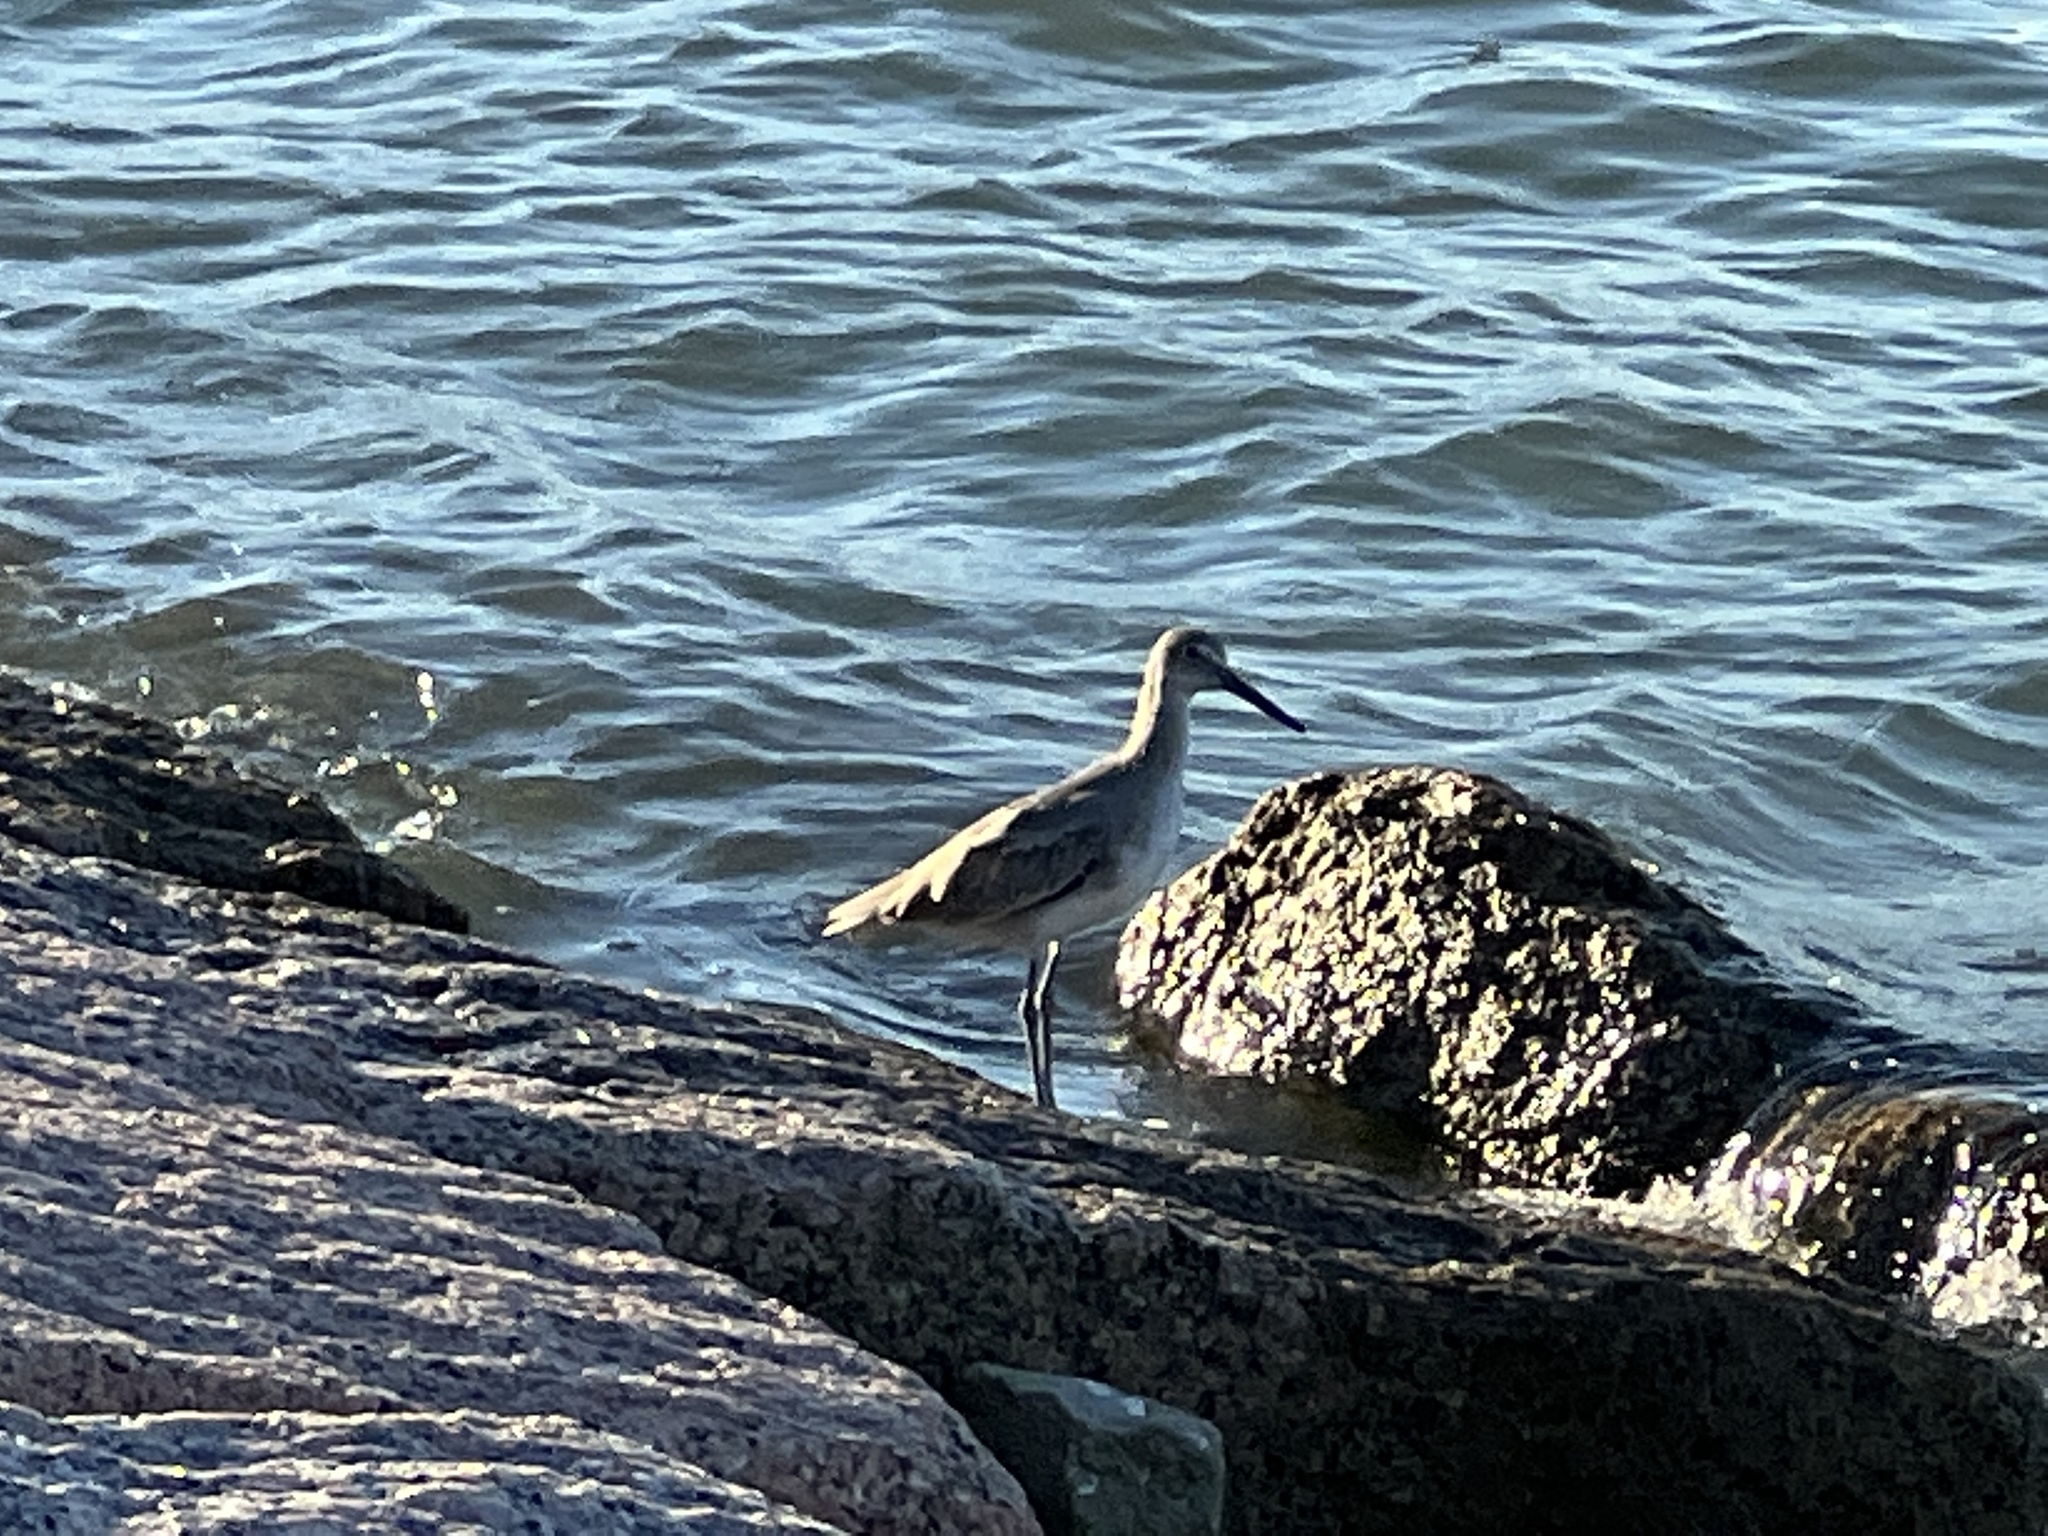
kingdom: Animalia
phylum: Chordata
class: Aves
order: Charadriiformes
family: Scolopacidae
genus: Tringa
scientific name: Tringa semipalmata
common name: Willet
